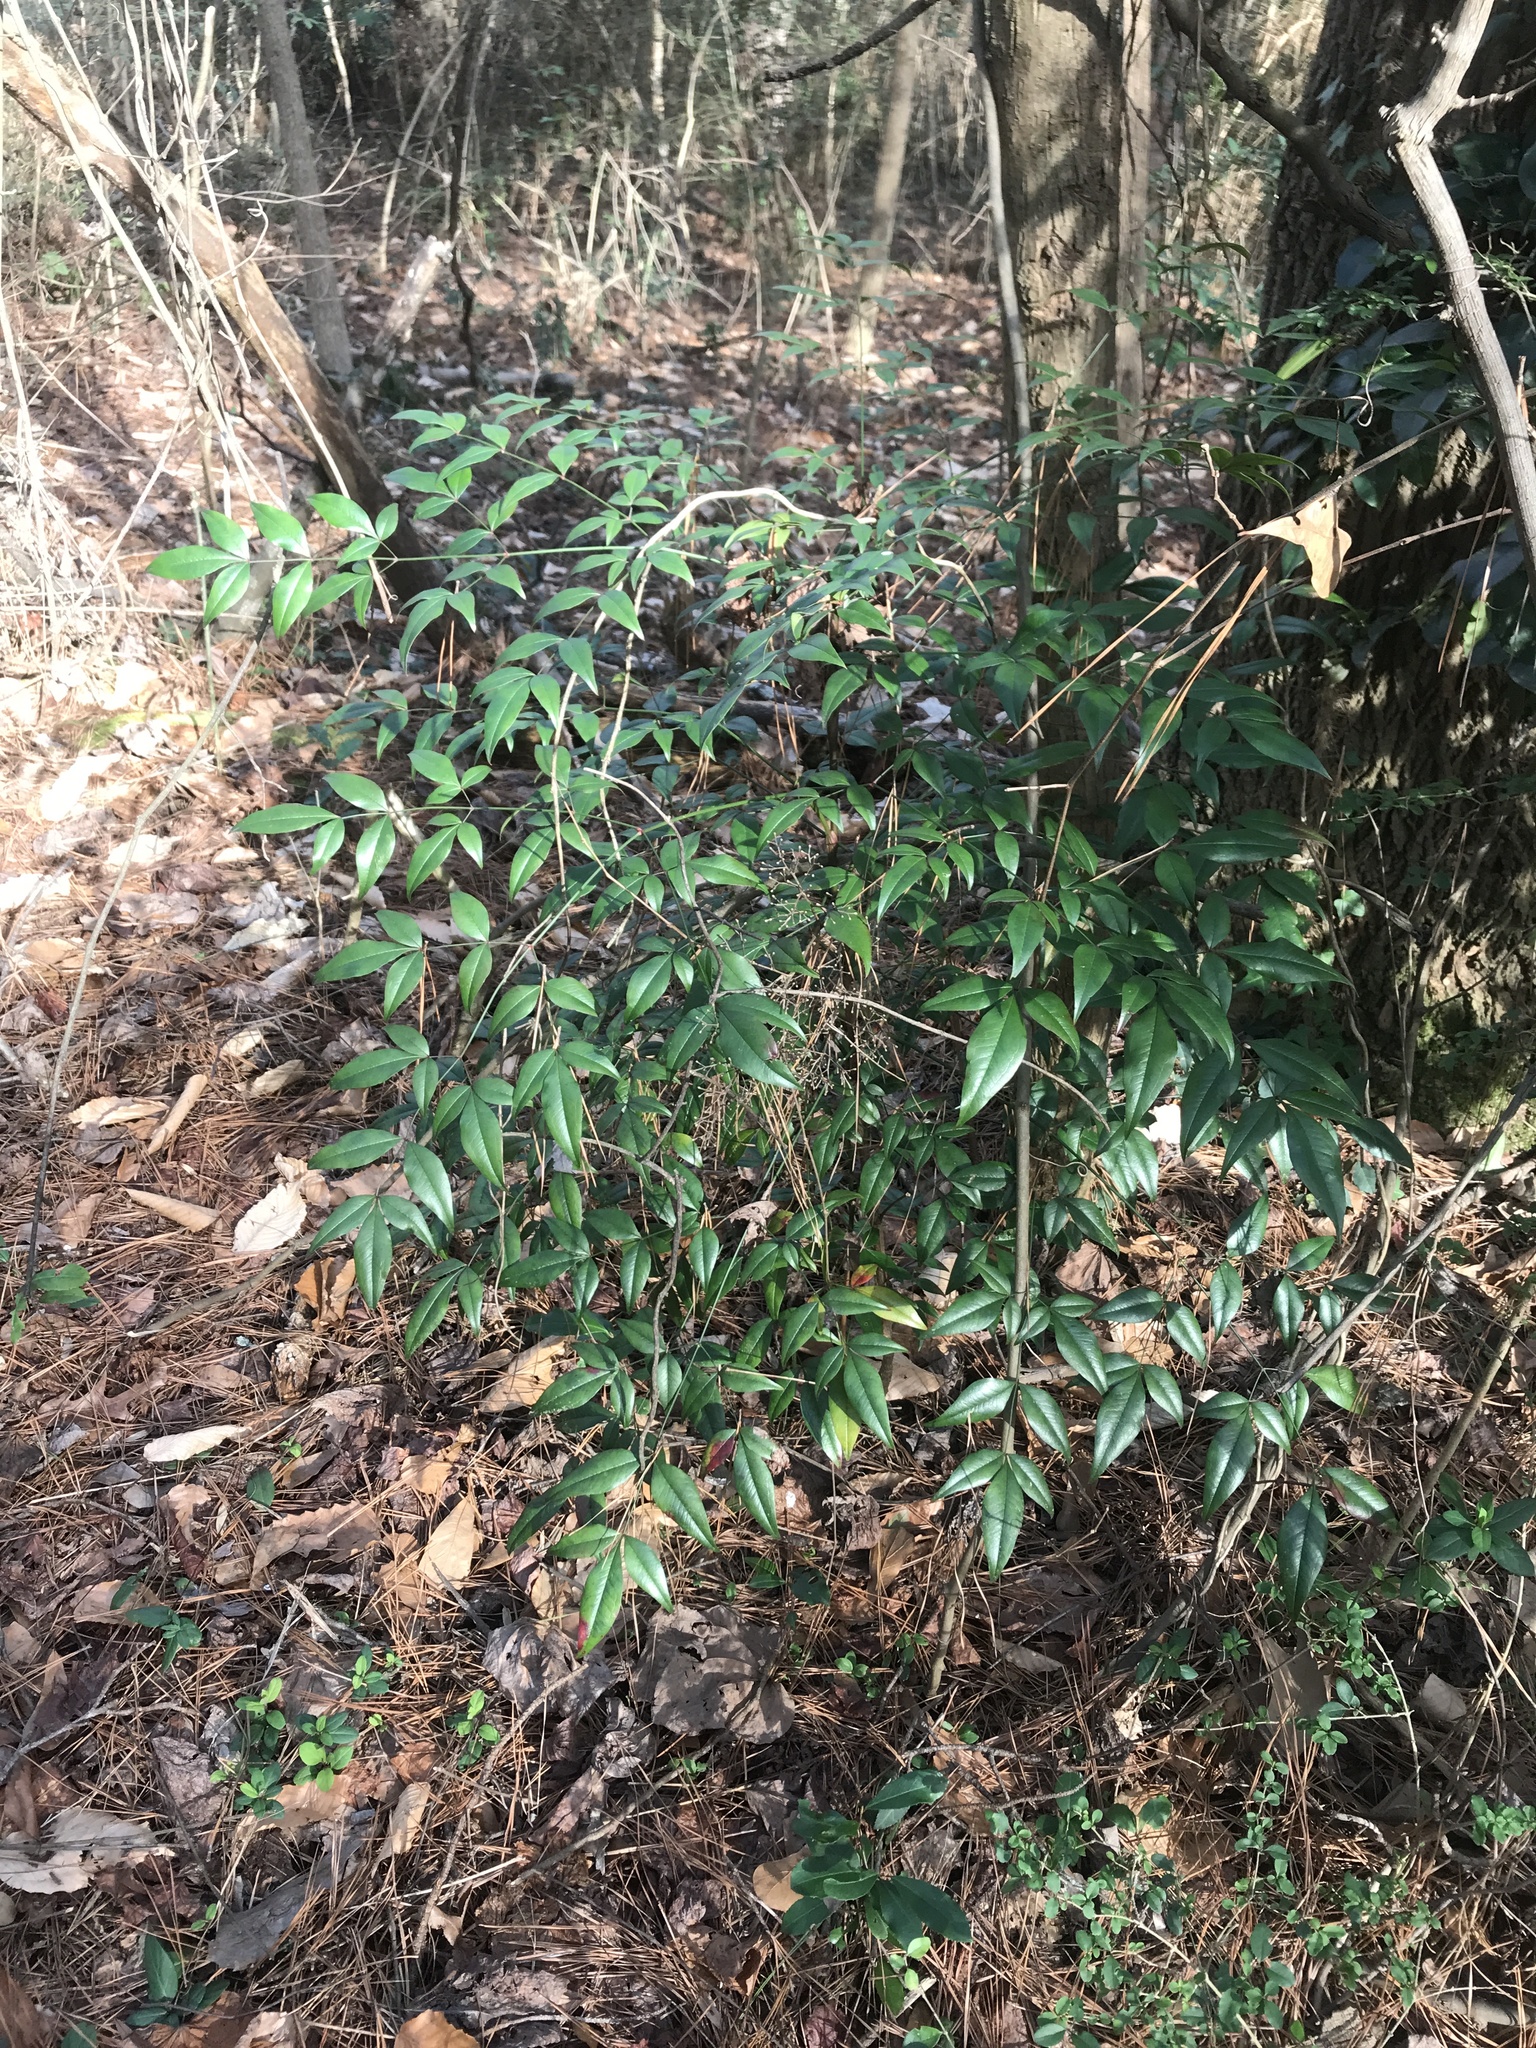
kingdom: Plantae
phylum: Tracheophyta
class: Magnoliopsida
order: Ranunculales
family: Berberidaceae
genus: Nandina
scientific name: Nandina domestica
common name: Sacred bamboo
